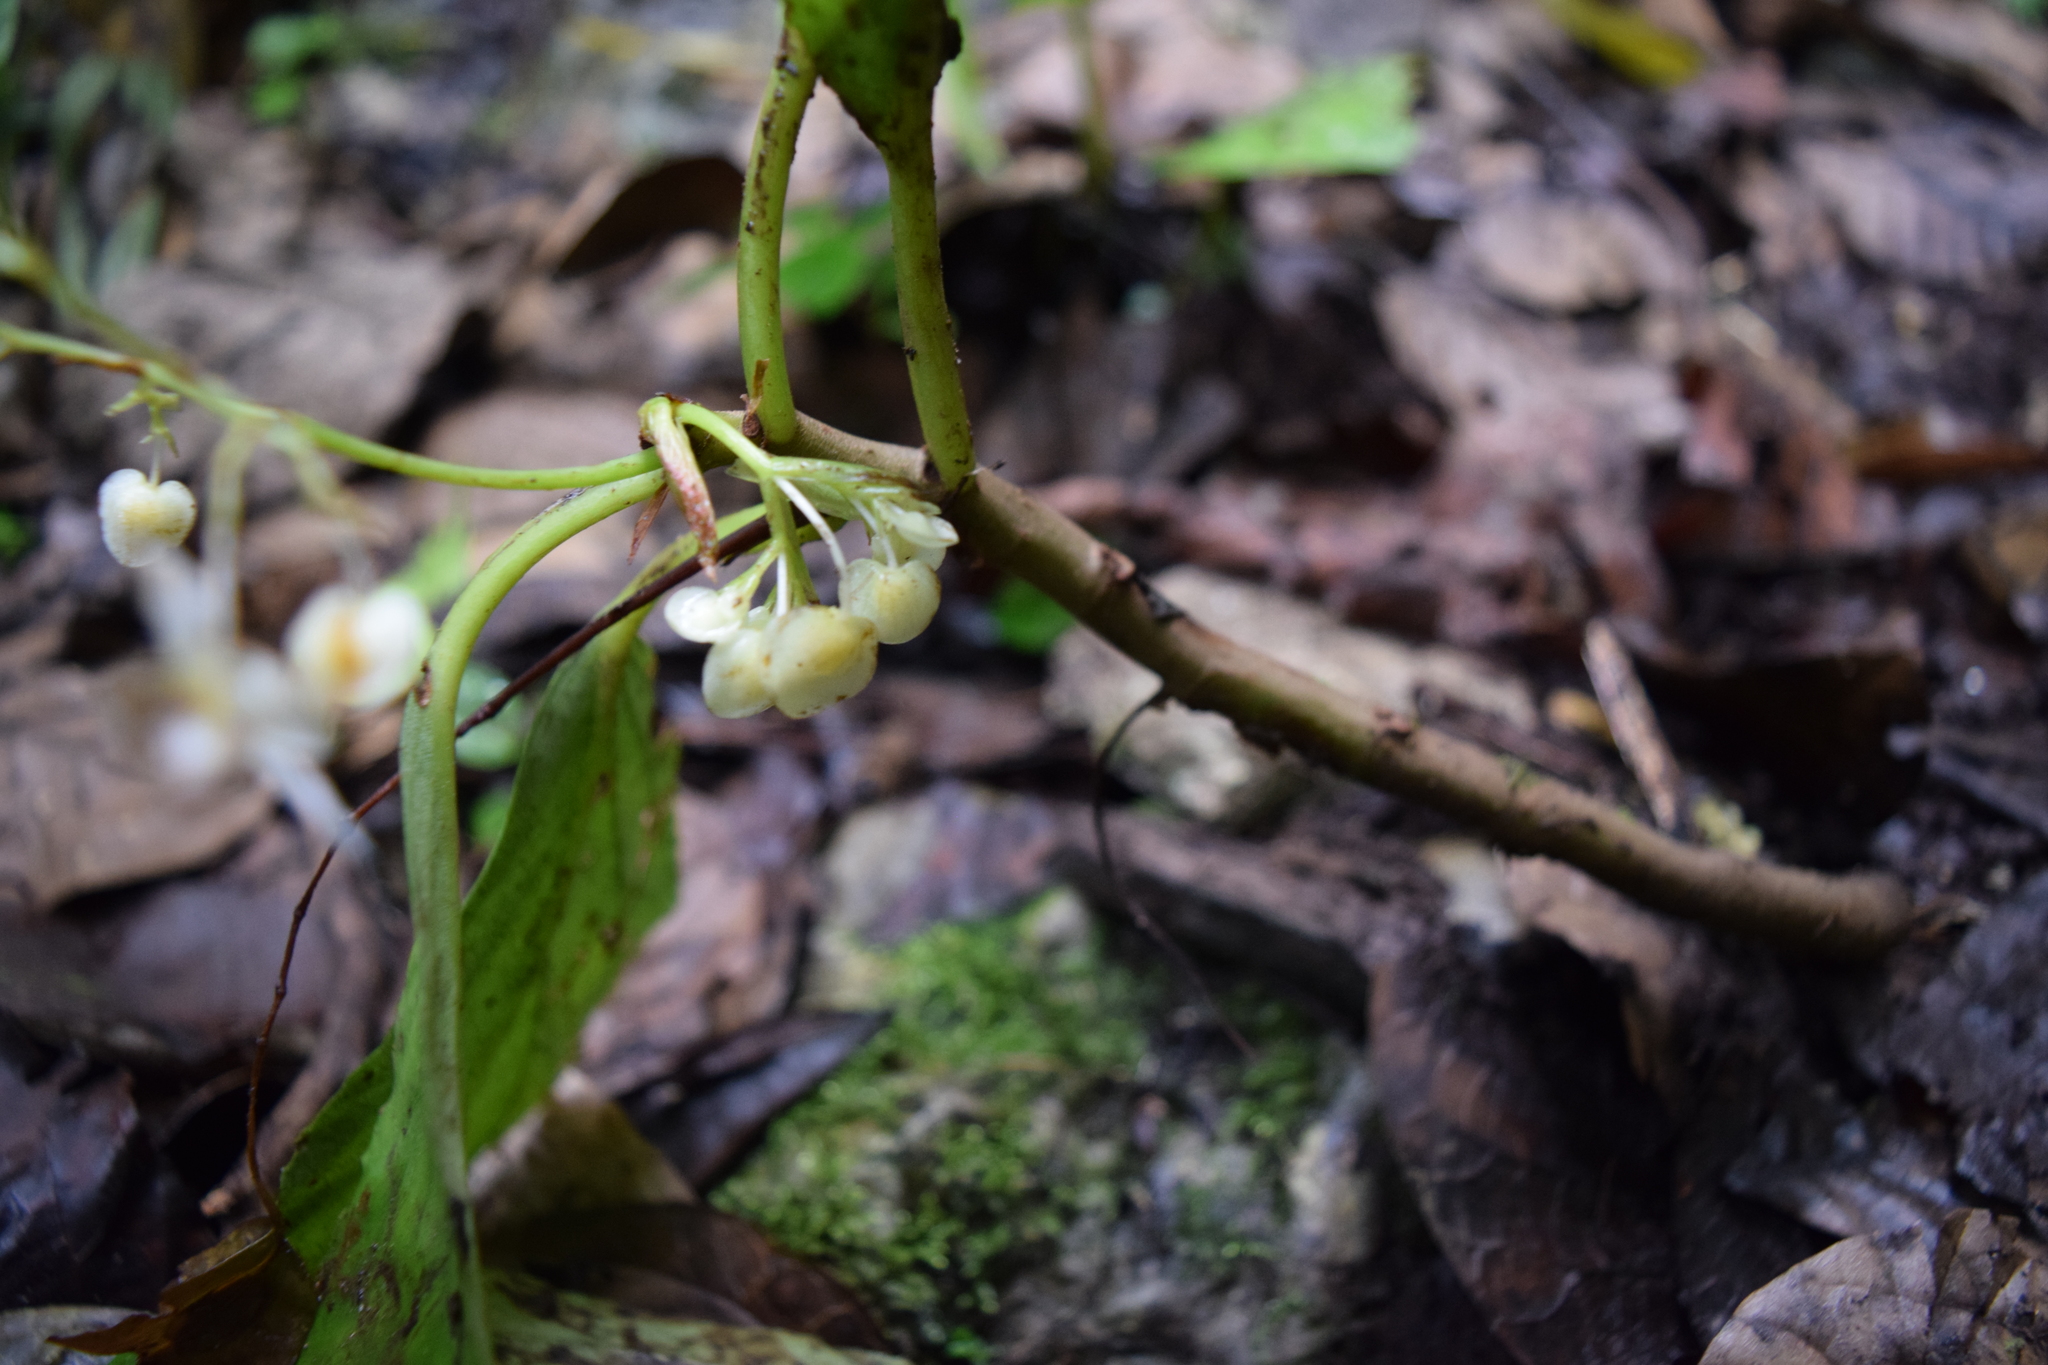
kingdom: Plantae
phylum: Tracheophyta
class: Magnoliopsida
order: Cucurbitales
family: Begoniaceae
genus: Begonia
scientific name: Begonia maynensis
